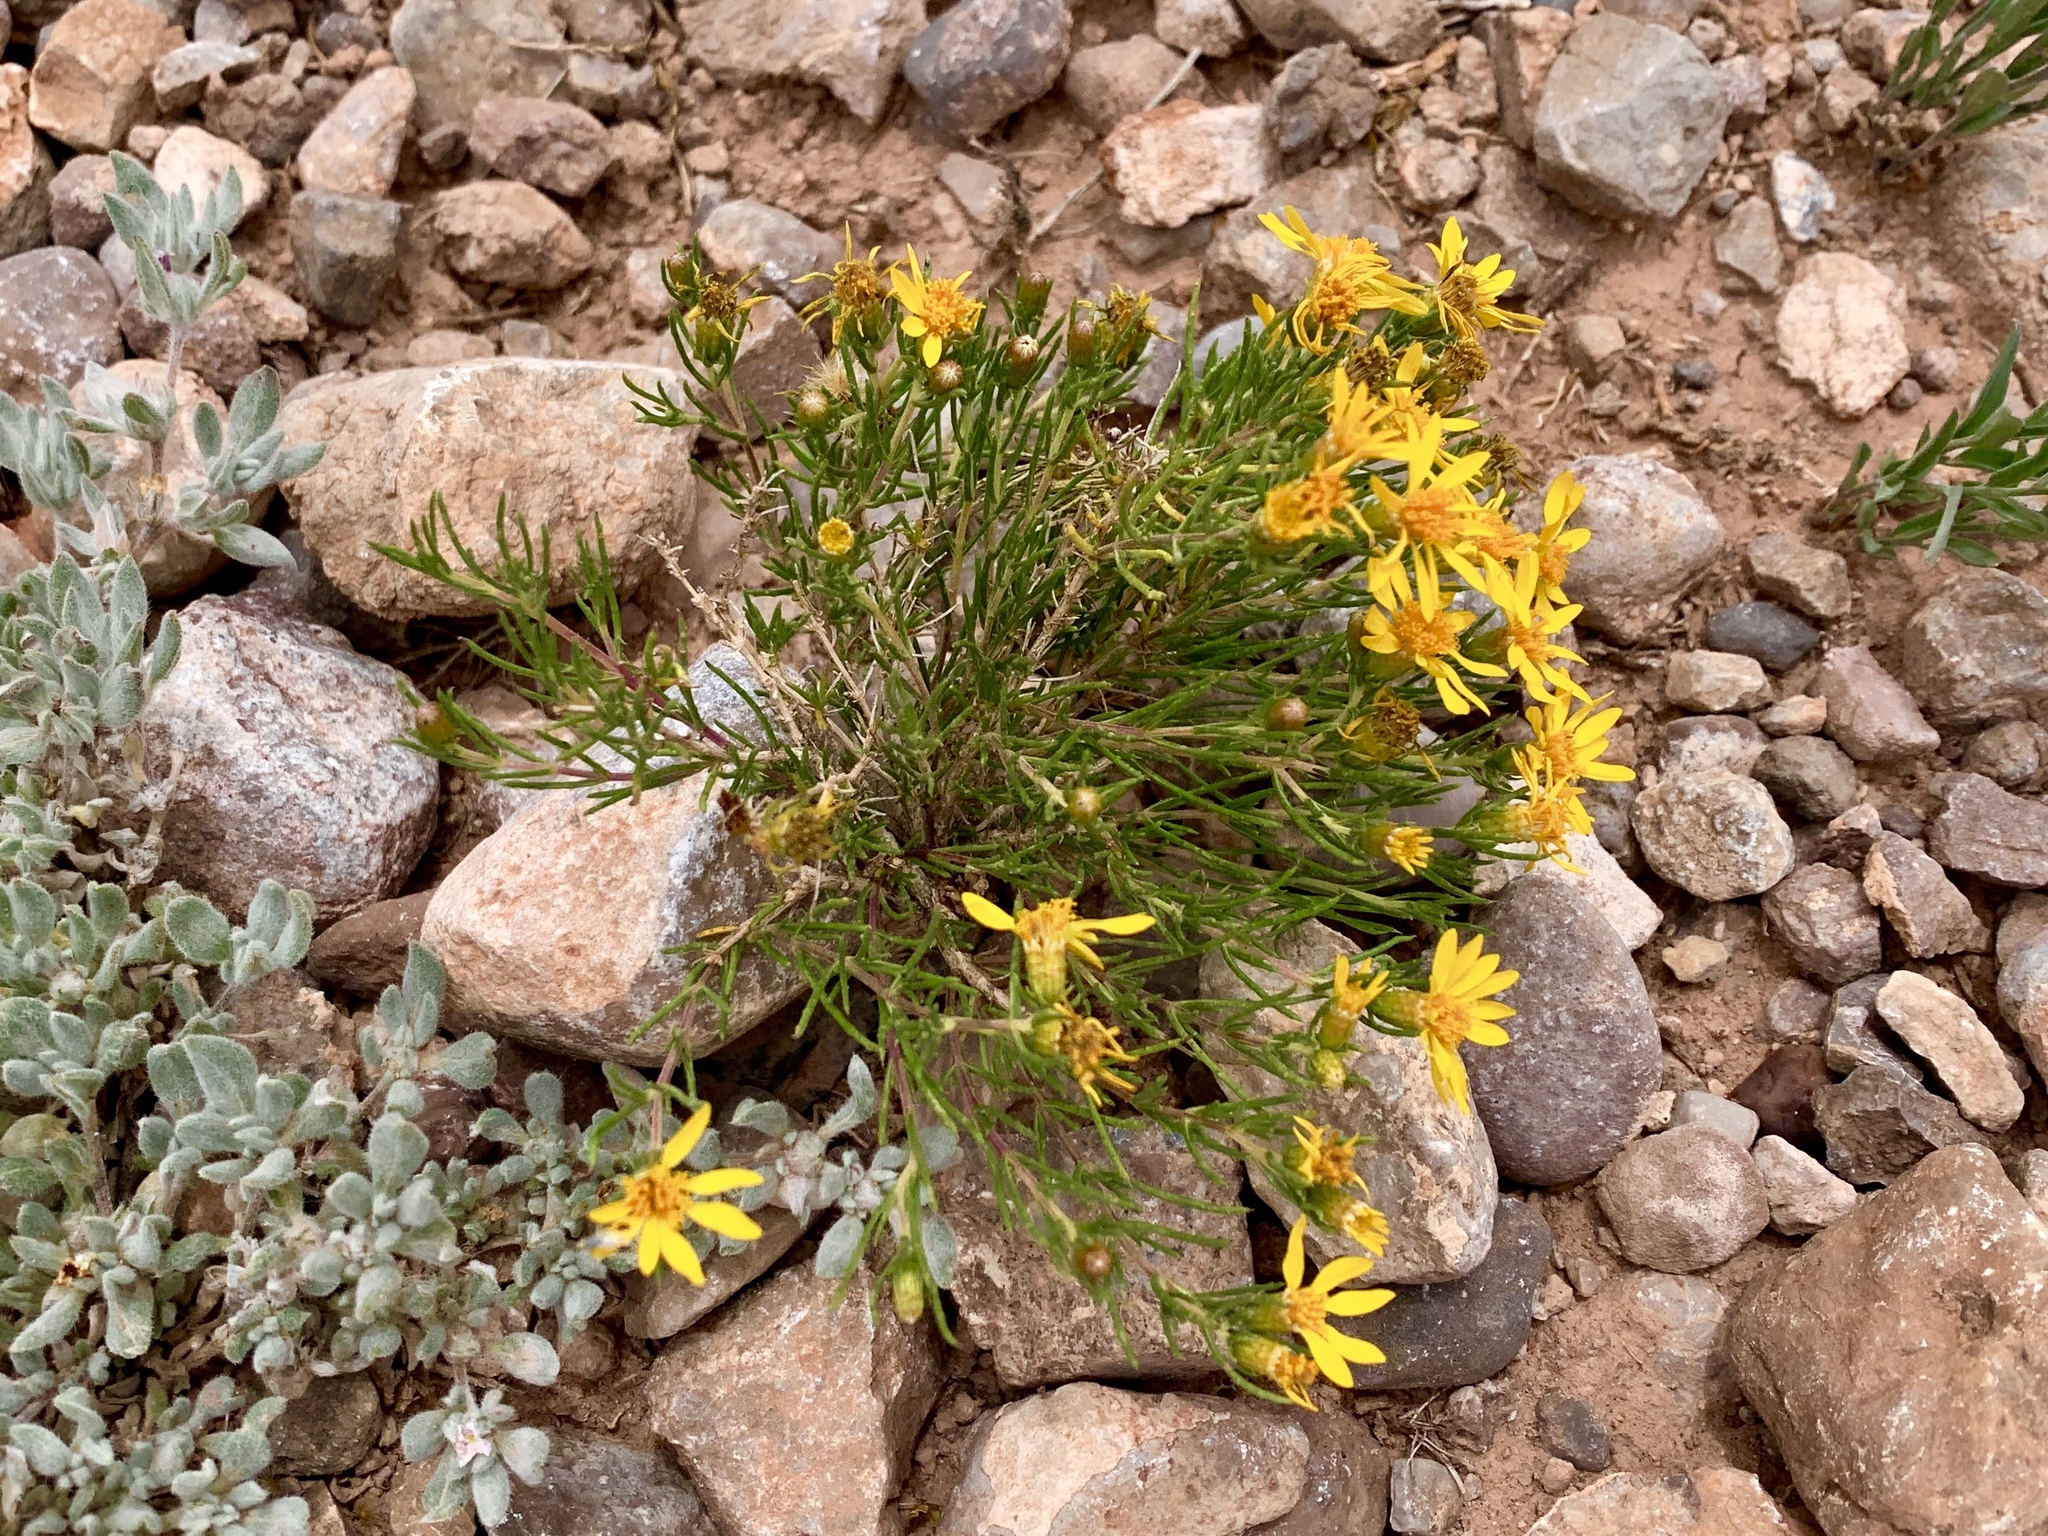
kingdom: Plantae
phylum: Tracheophyta
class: Magnoliopsida
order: Asterales
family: Asteraceae
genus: Thymophylla
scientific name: Thymophylla acerosa
